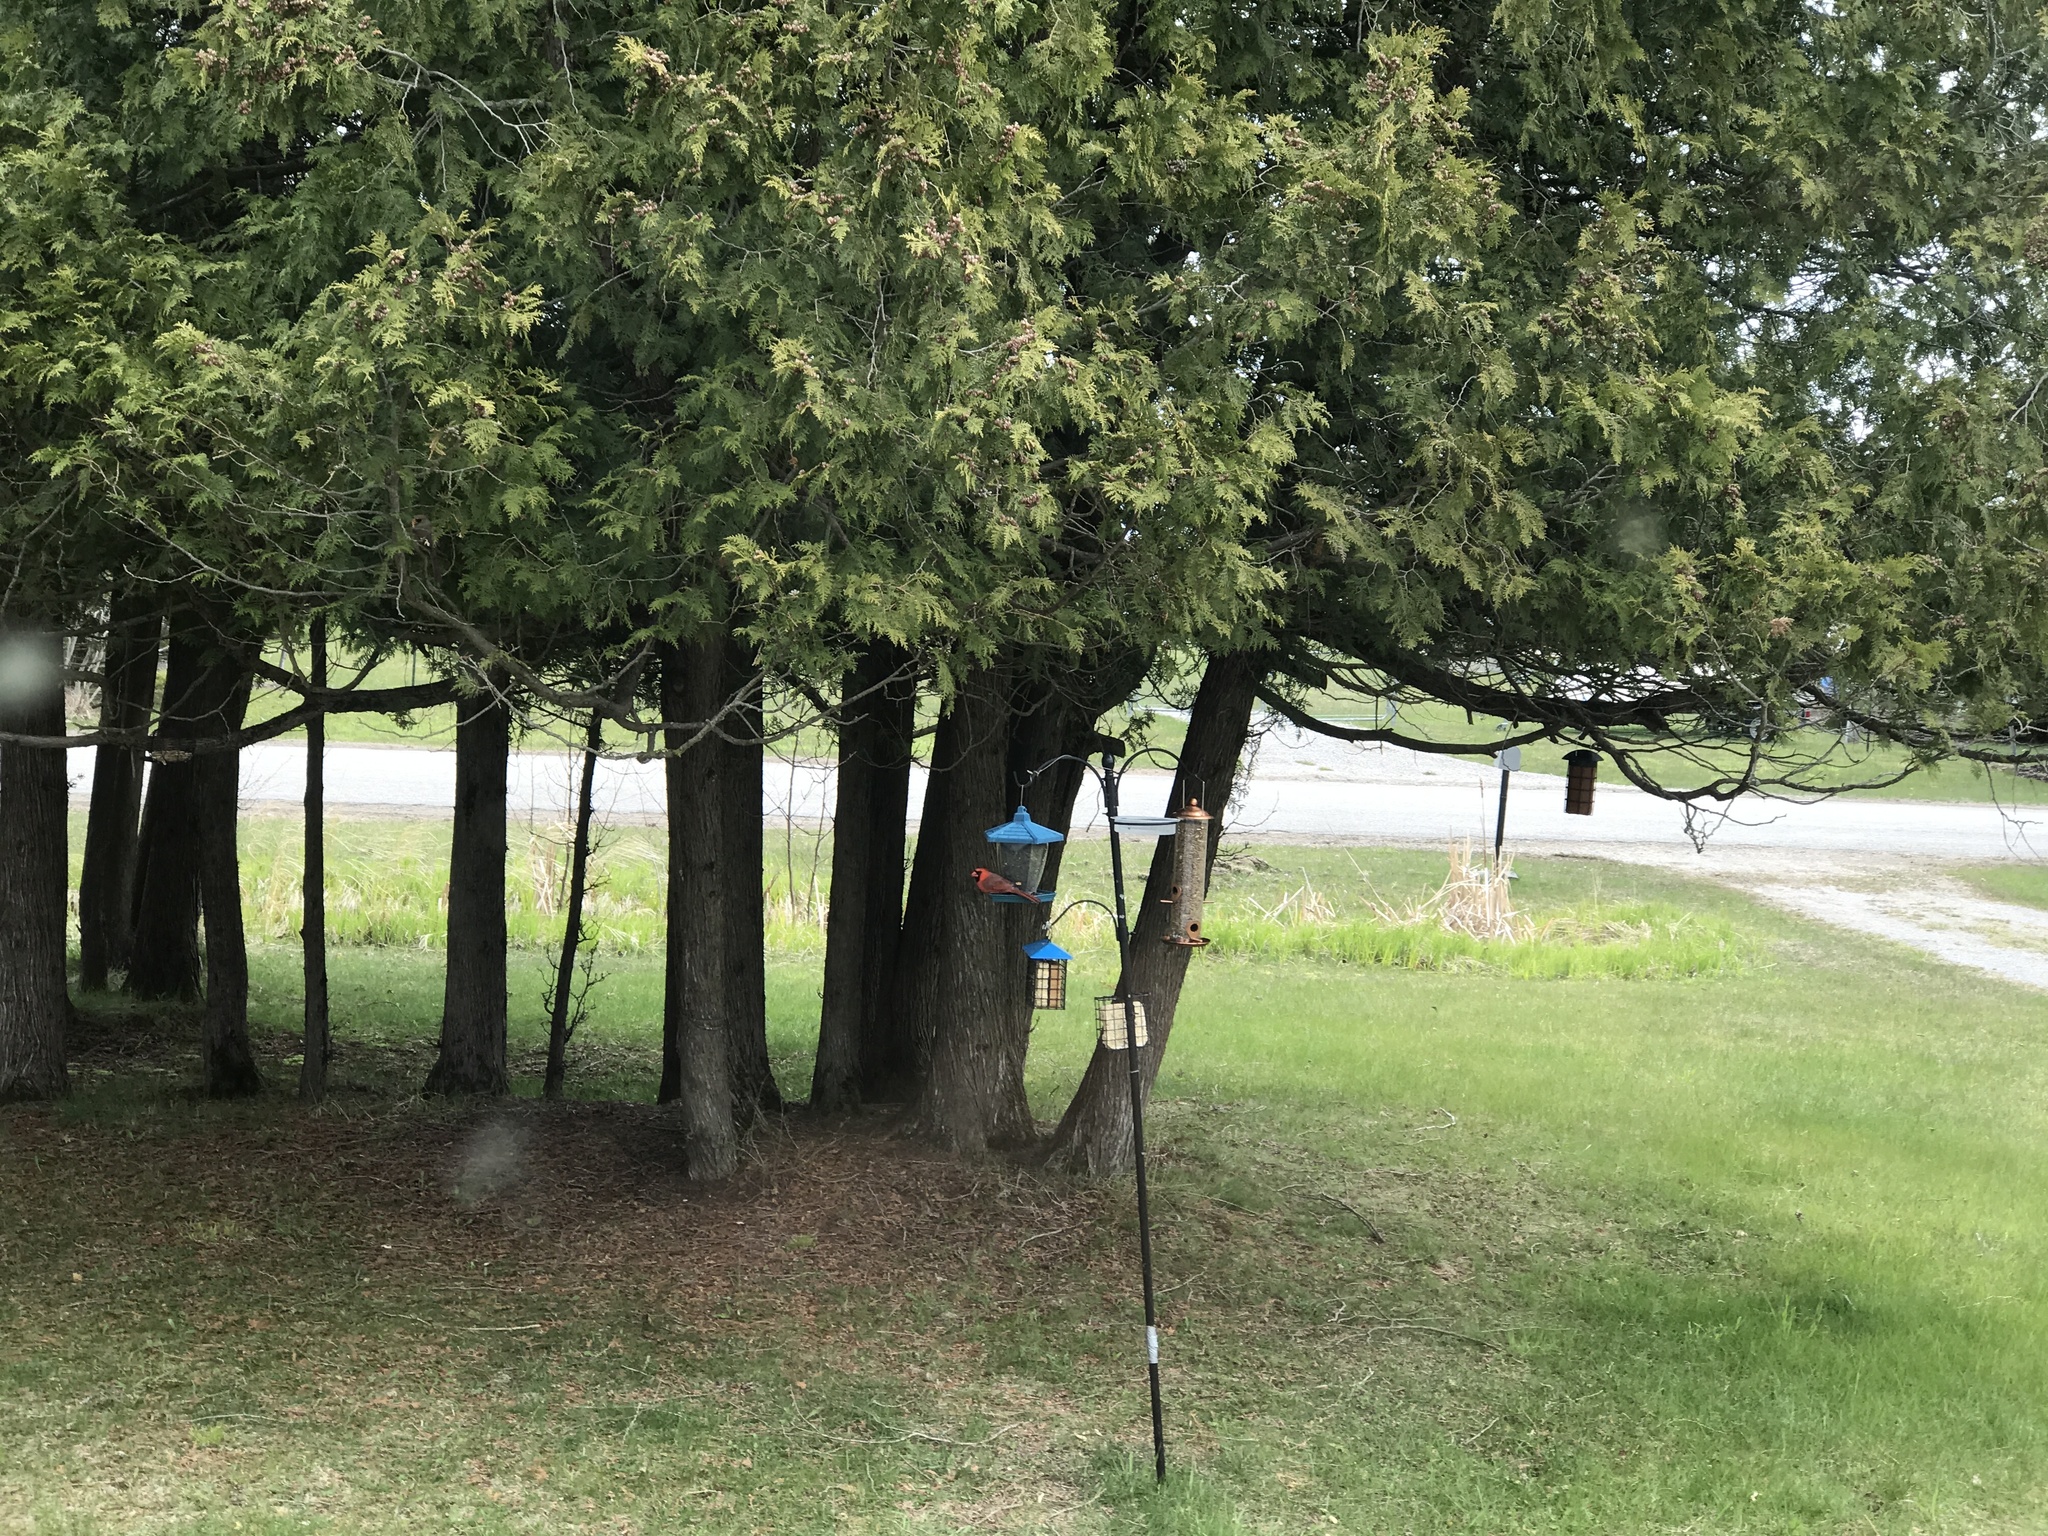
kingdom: Animalia
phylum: Chordata
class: Aves
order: Passeriformes
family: Cardinalidae
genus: Cardinalis
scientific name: Cardinalis cardinalis
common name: Northern cardinal
